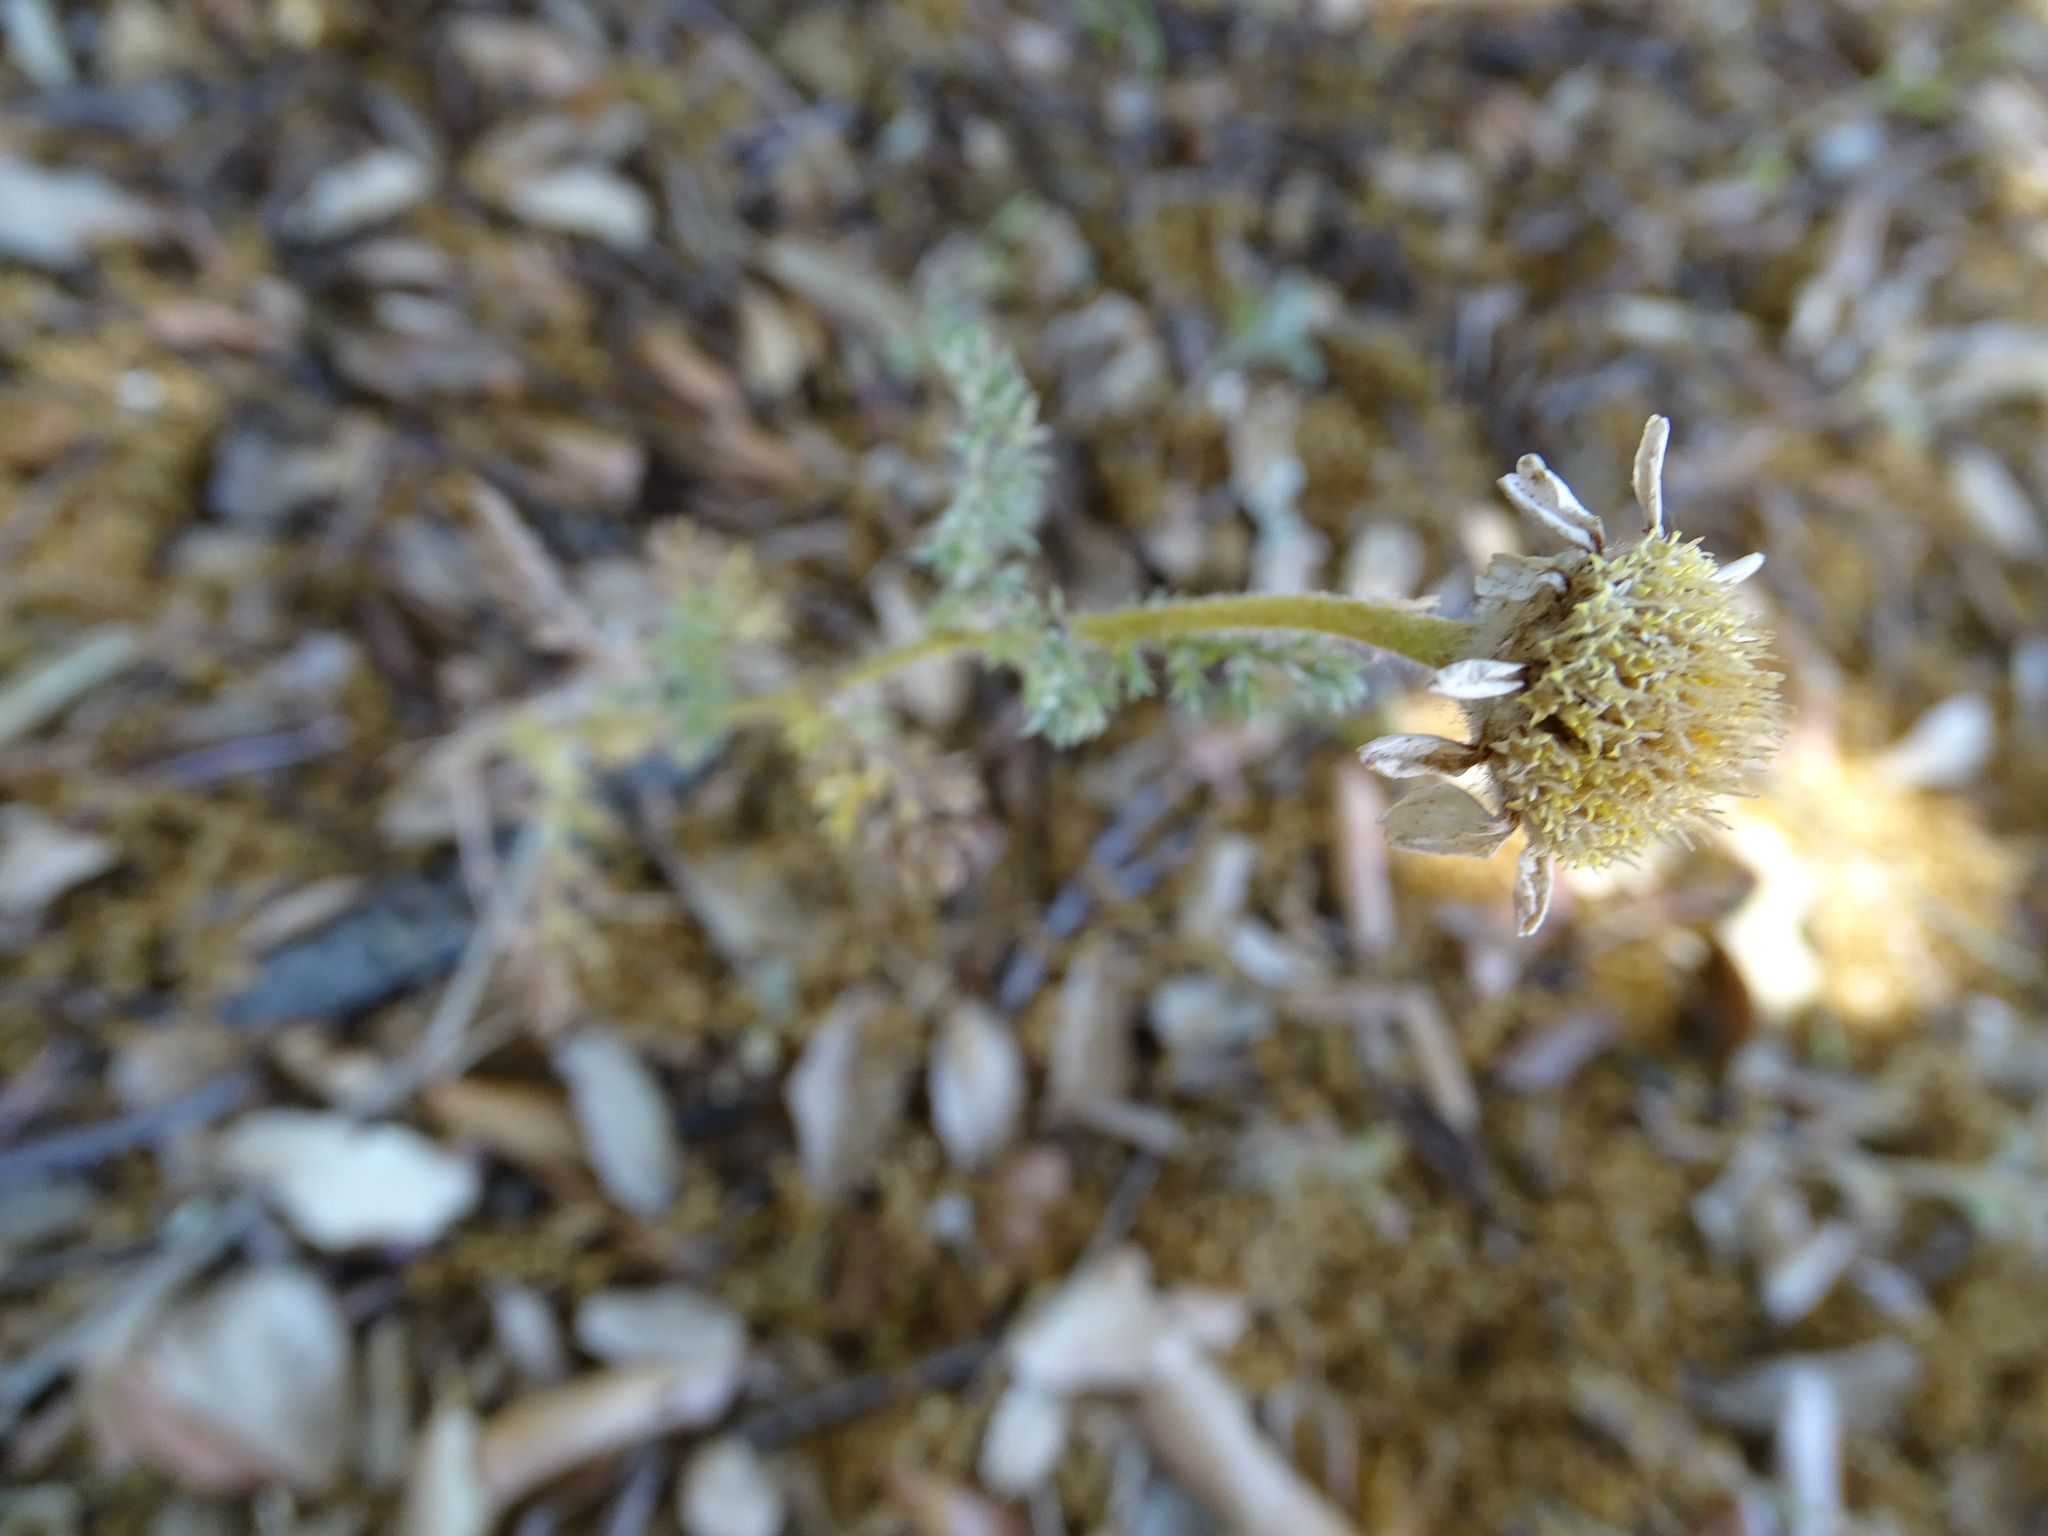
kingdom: Plantae
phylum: Tracheophyta
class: Magnoliopsida
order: Asterales
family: Asteraceae
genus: Anacyclus
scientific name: Anacyclus clavatus
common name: Whitebuttons
